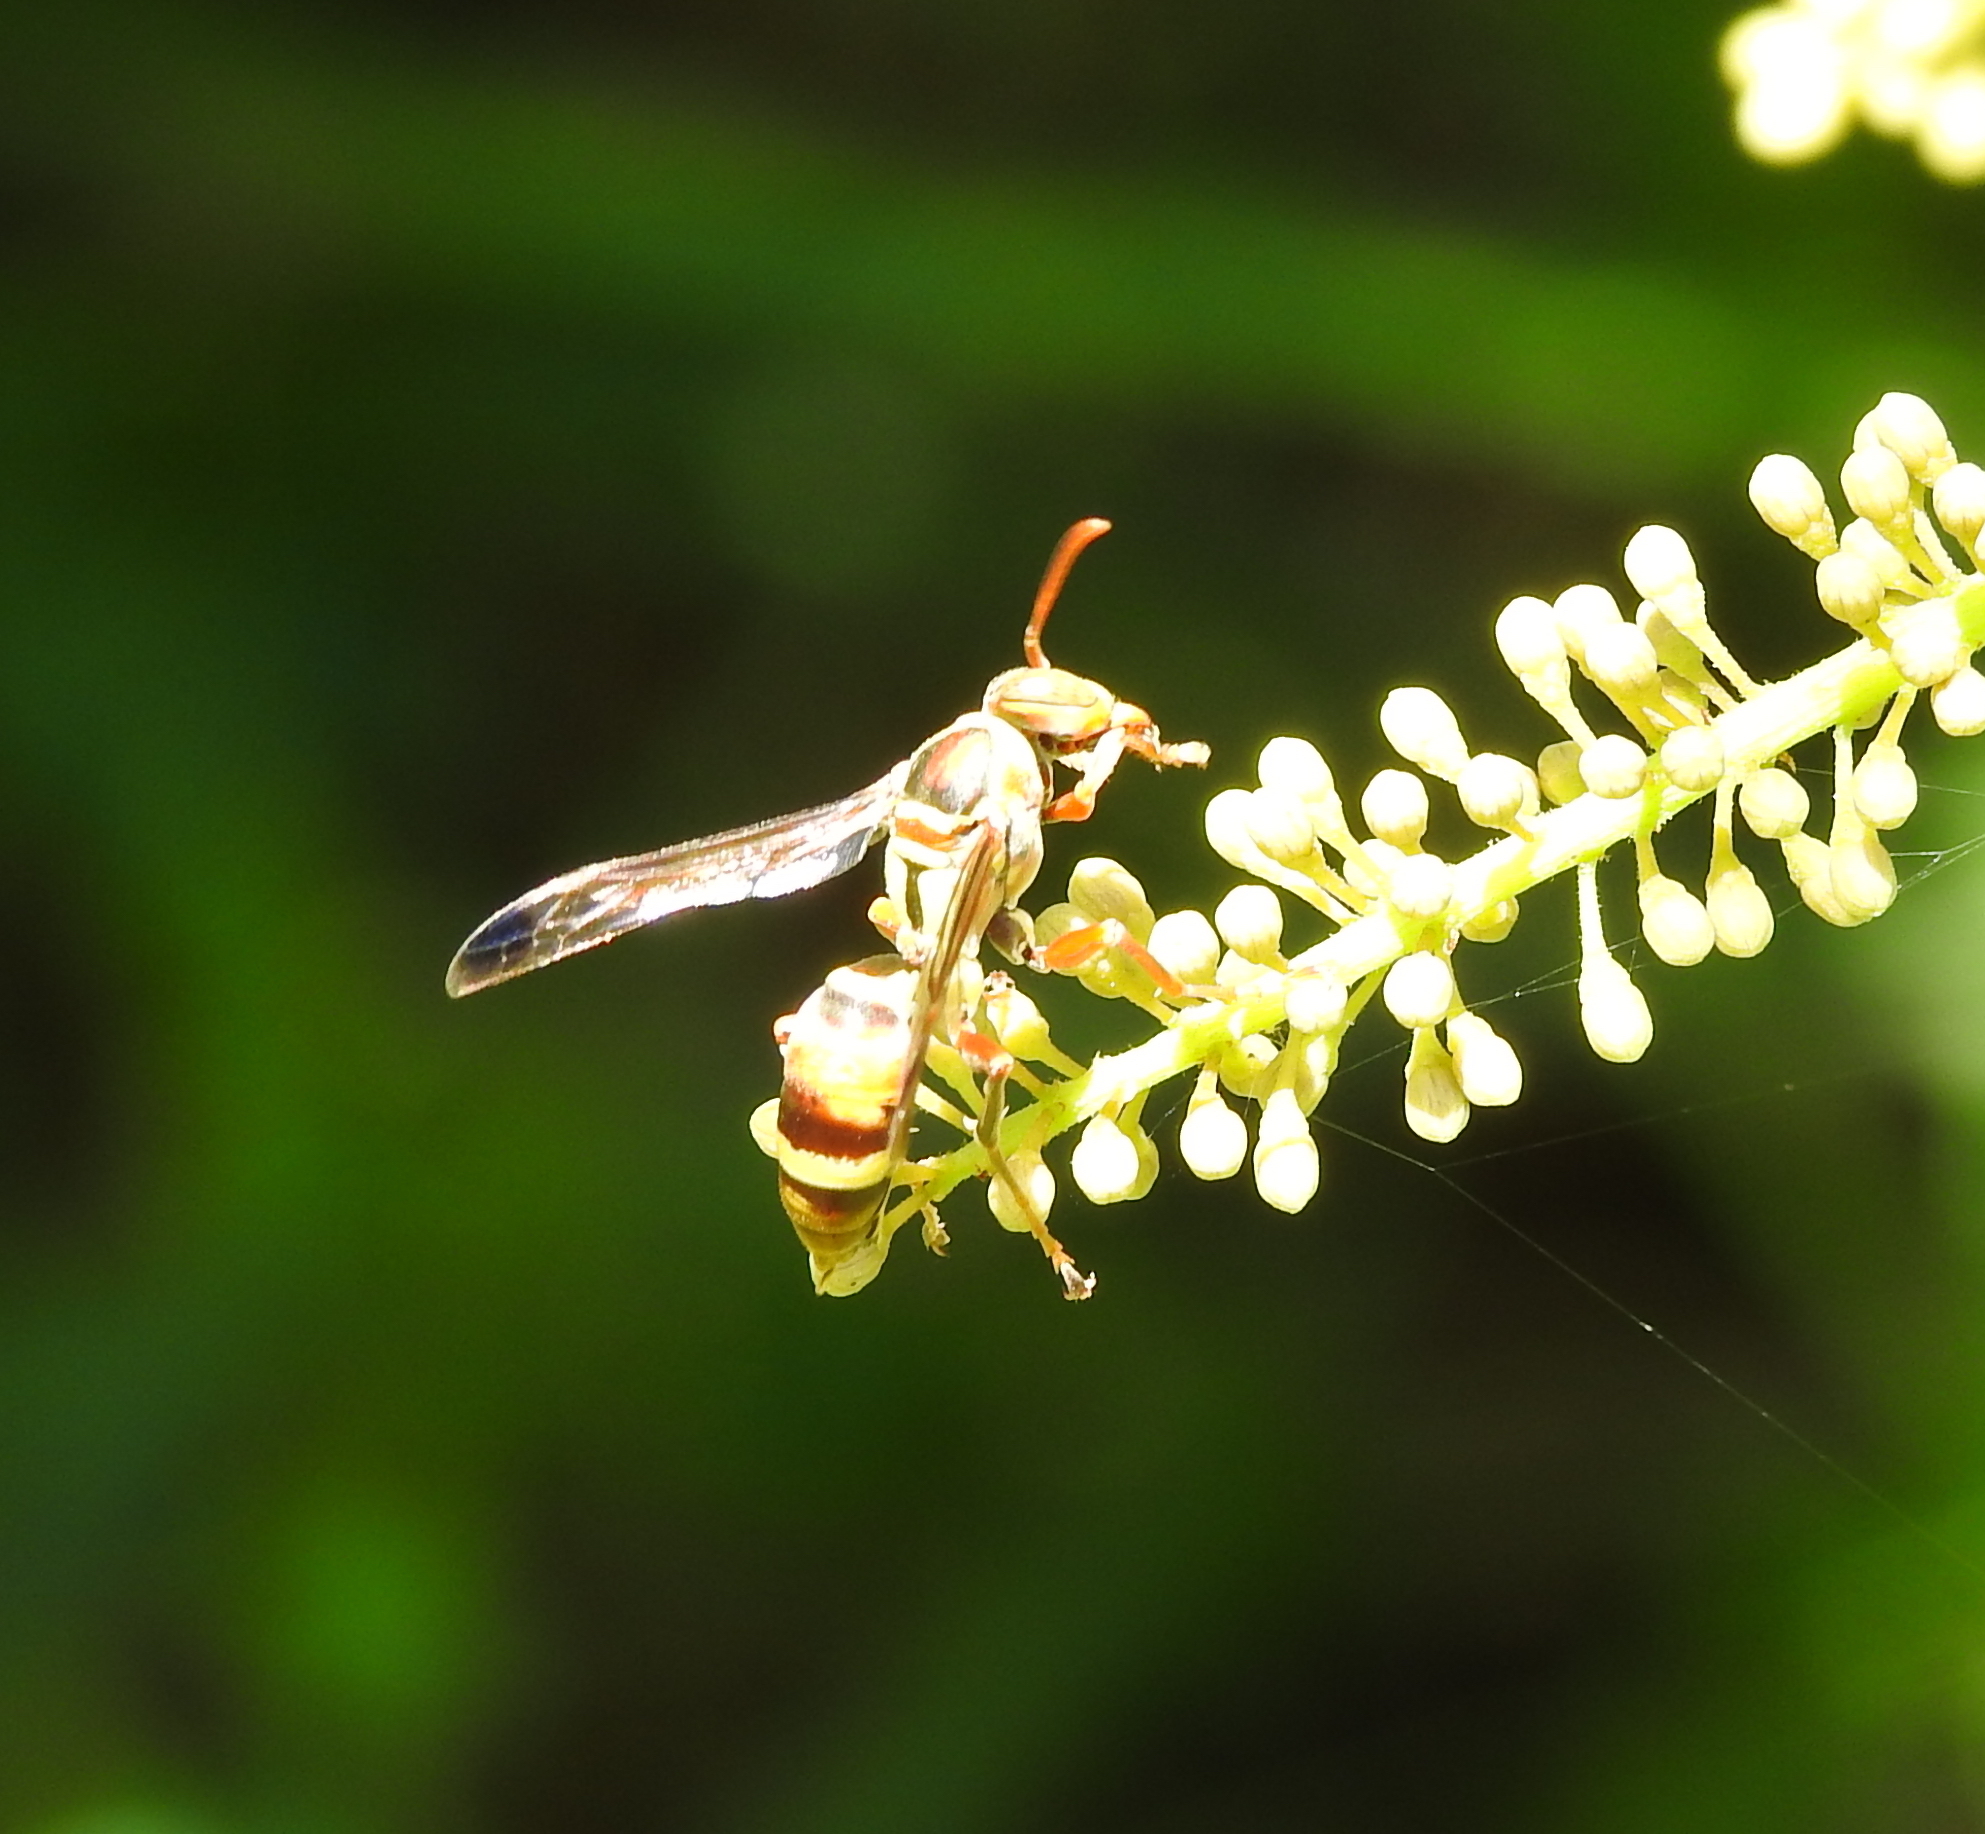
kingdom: Animalia
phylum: Arthropoda
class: Insecta
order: Hymenoptera
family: Eumenidae
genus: Polistes
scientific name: Polistes stigma
